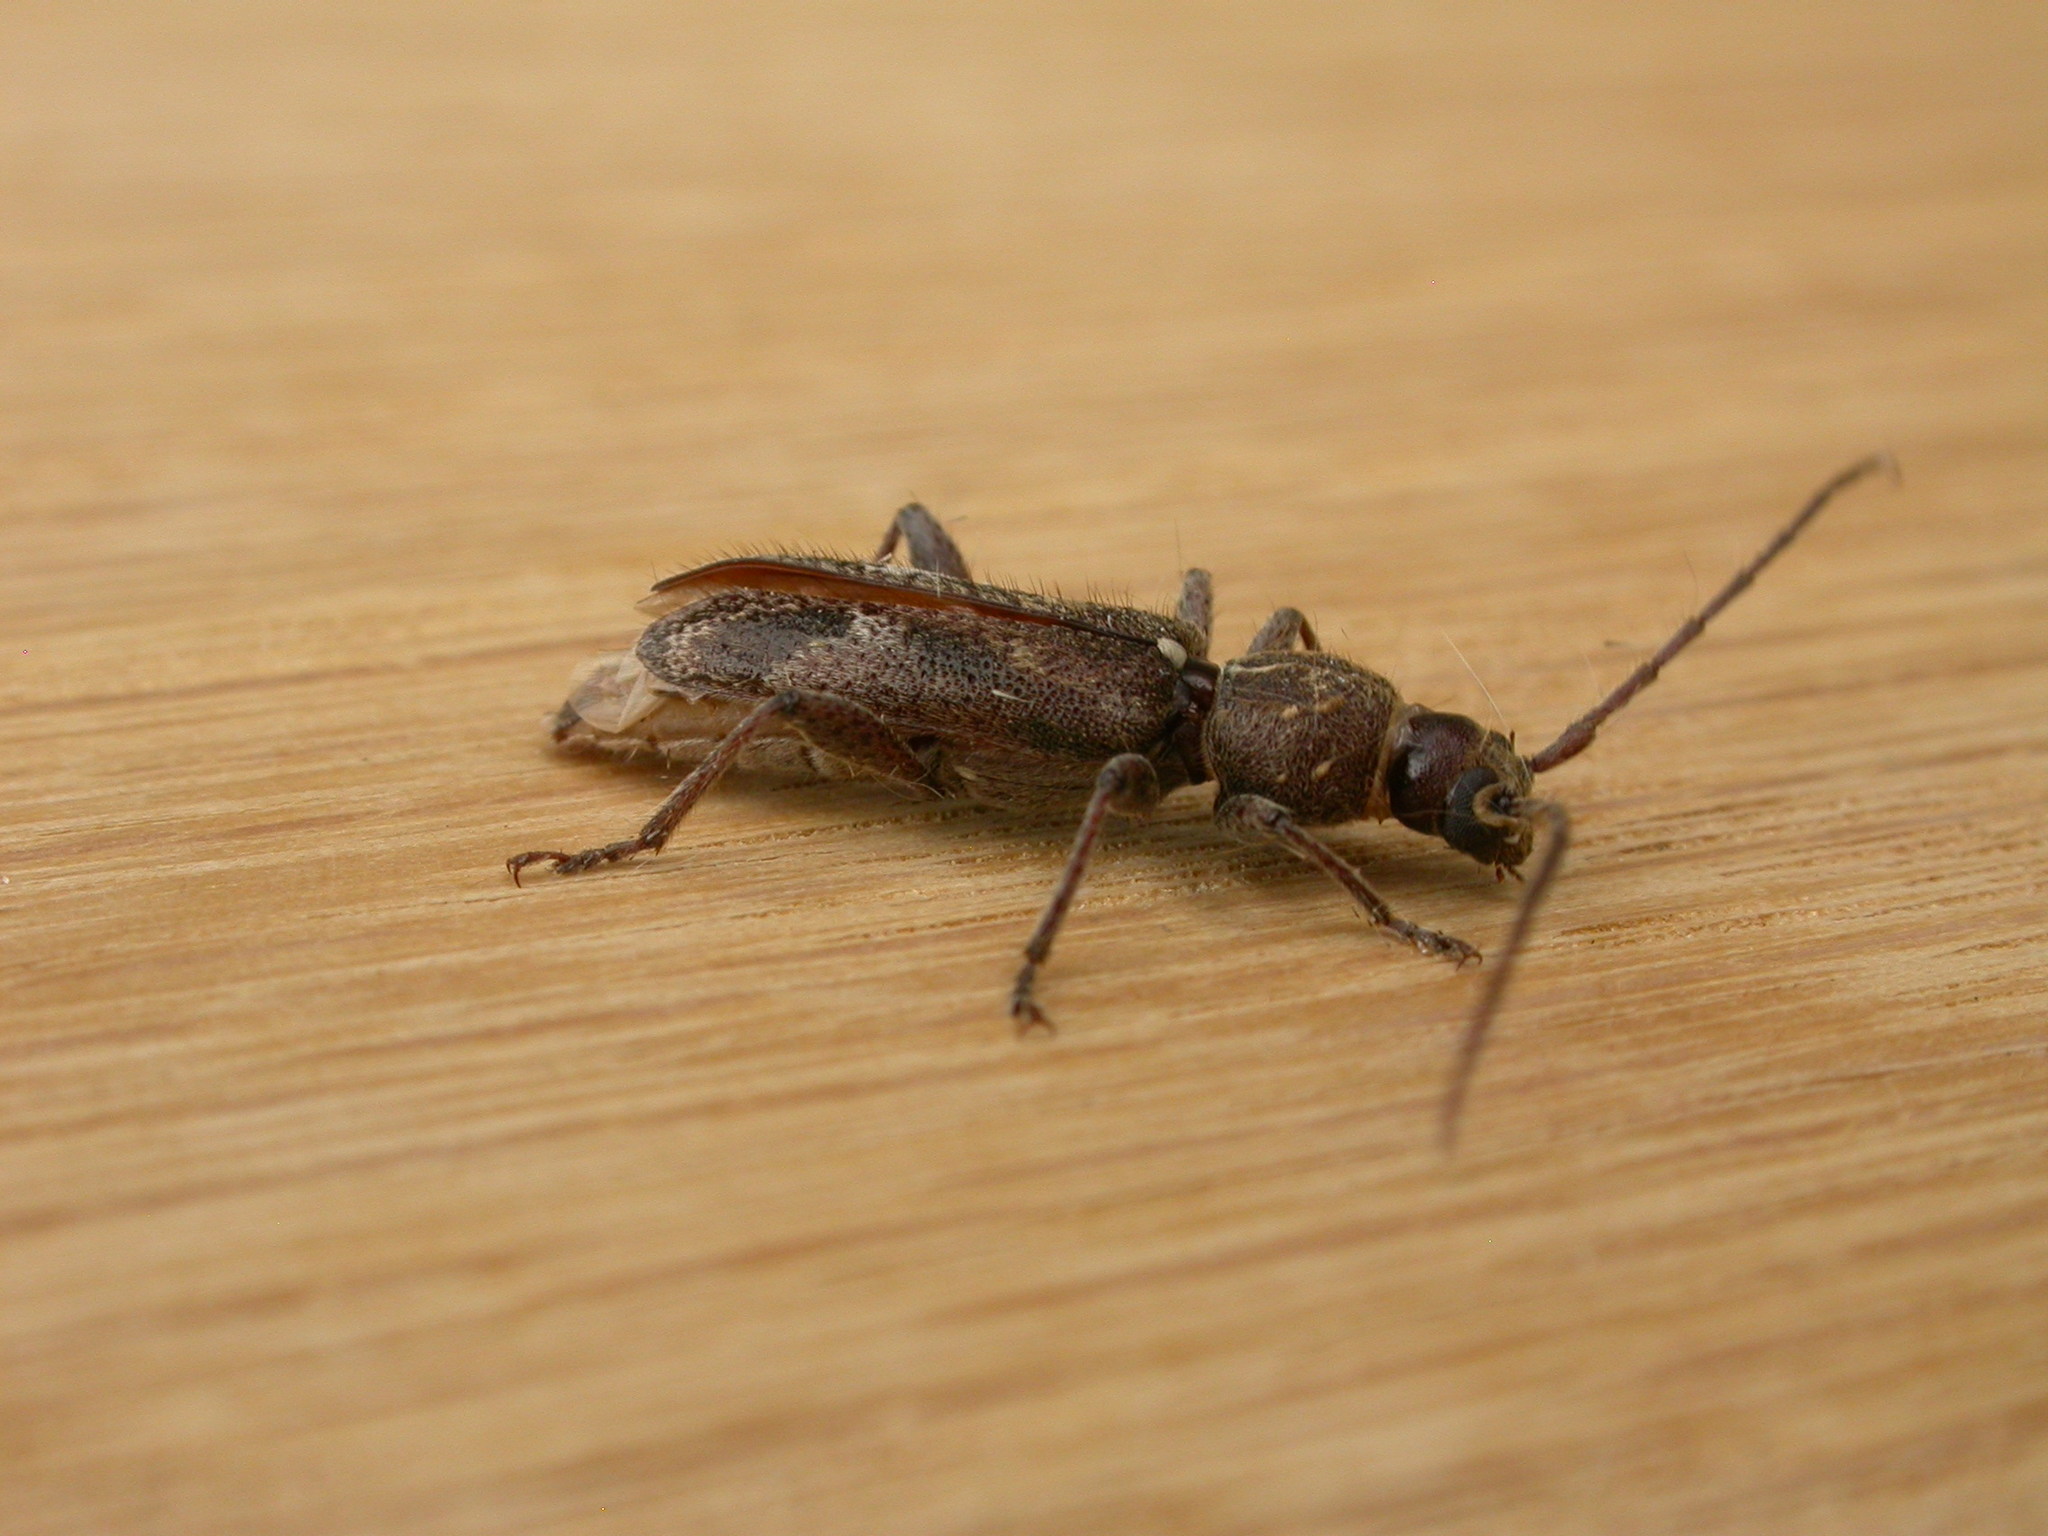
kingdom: Animalia
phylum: Arthropoda
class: Insecta
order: Coleoptera
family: Cerambycidae
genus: Phacodes
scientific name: Phacodes personatus
